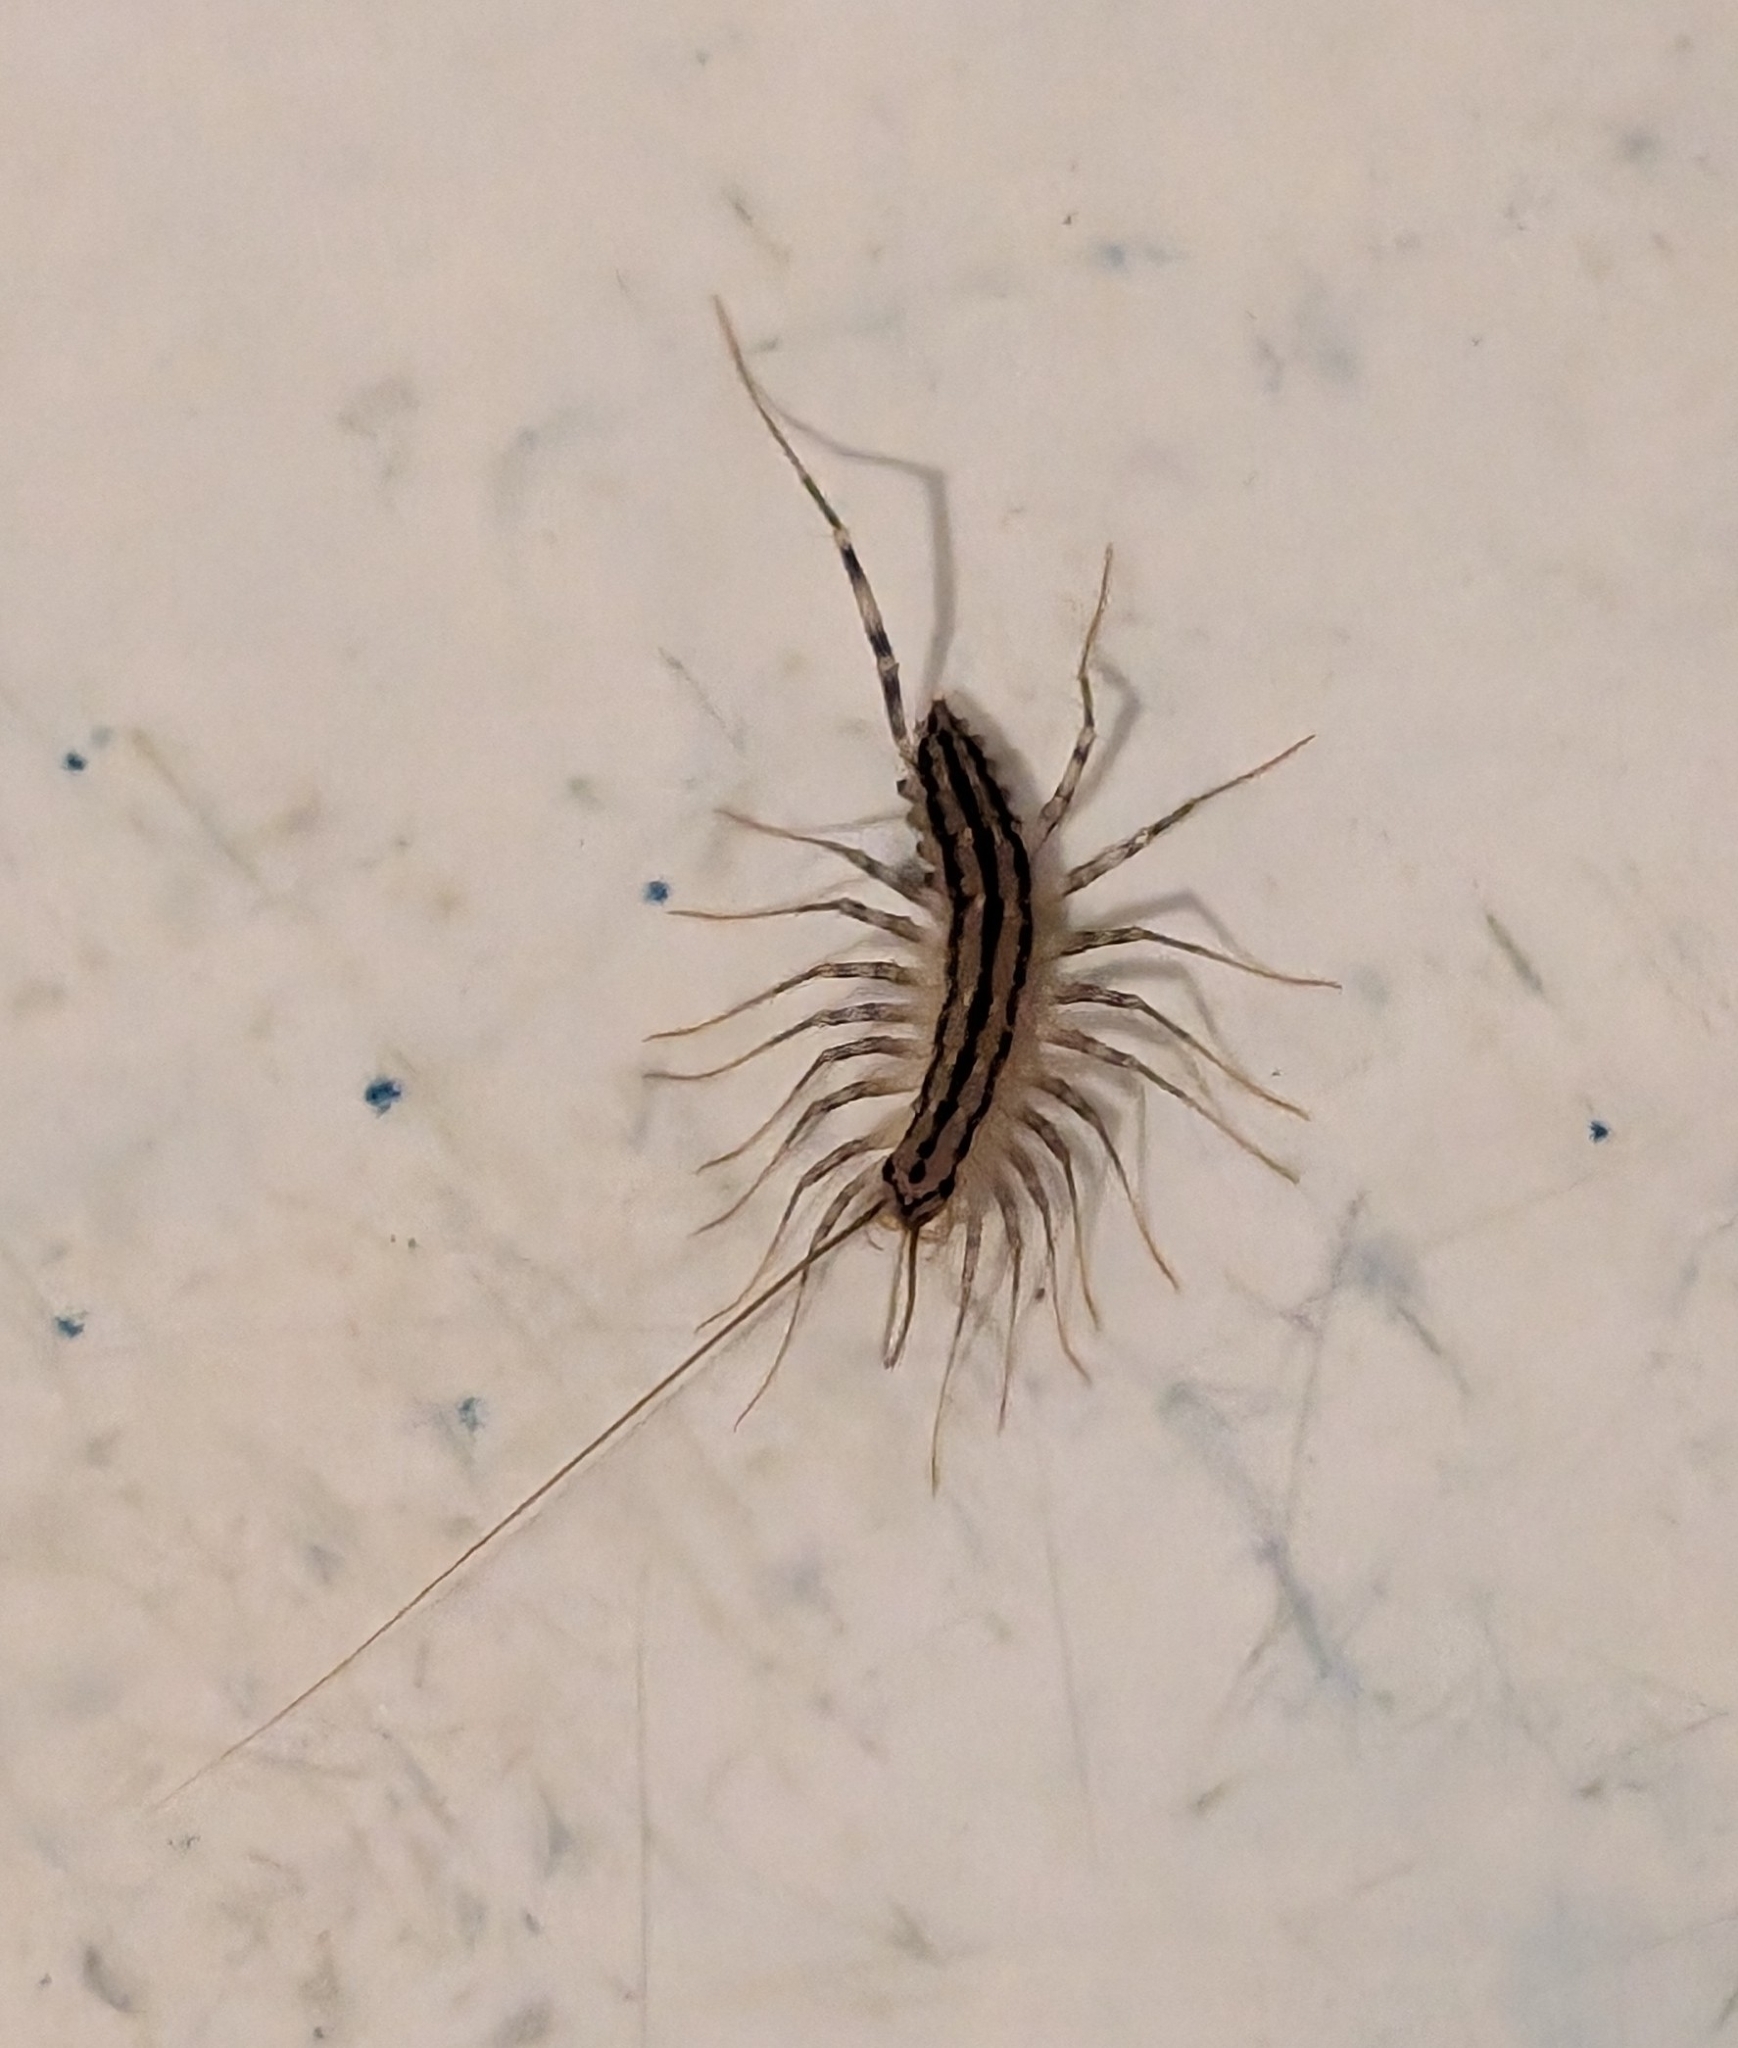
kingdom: Animalia
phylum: Arthropoda
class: Chilopoda
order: Scutigeromorpha
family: Scutigeridae
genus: Scutigera
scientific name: Scutigera coleoptrata
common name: House centipede
